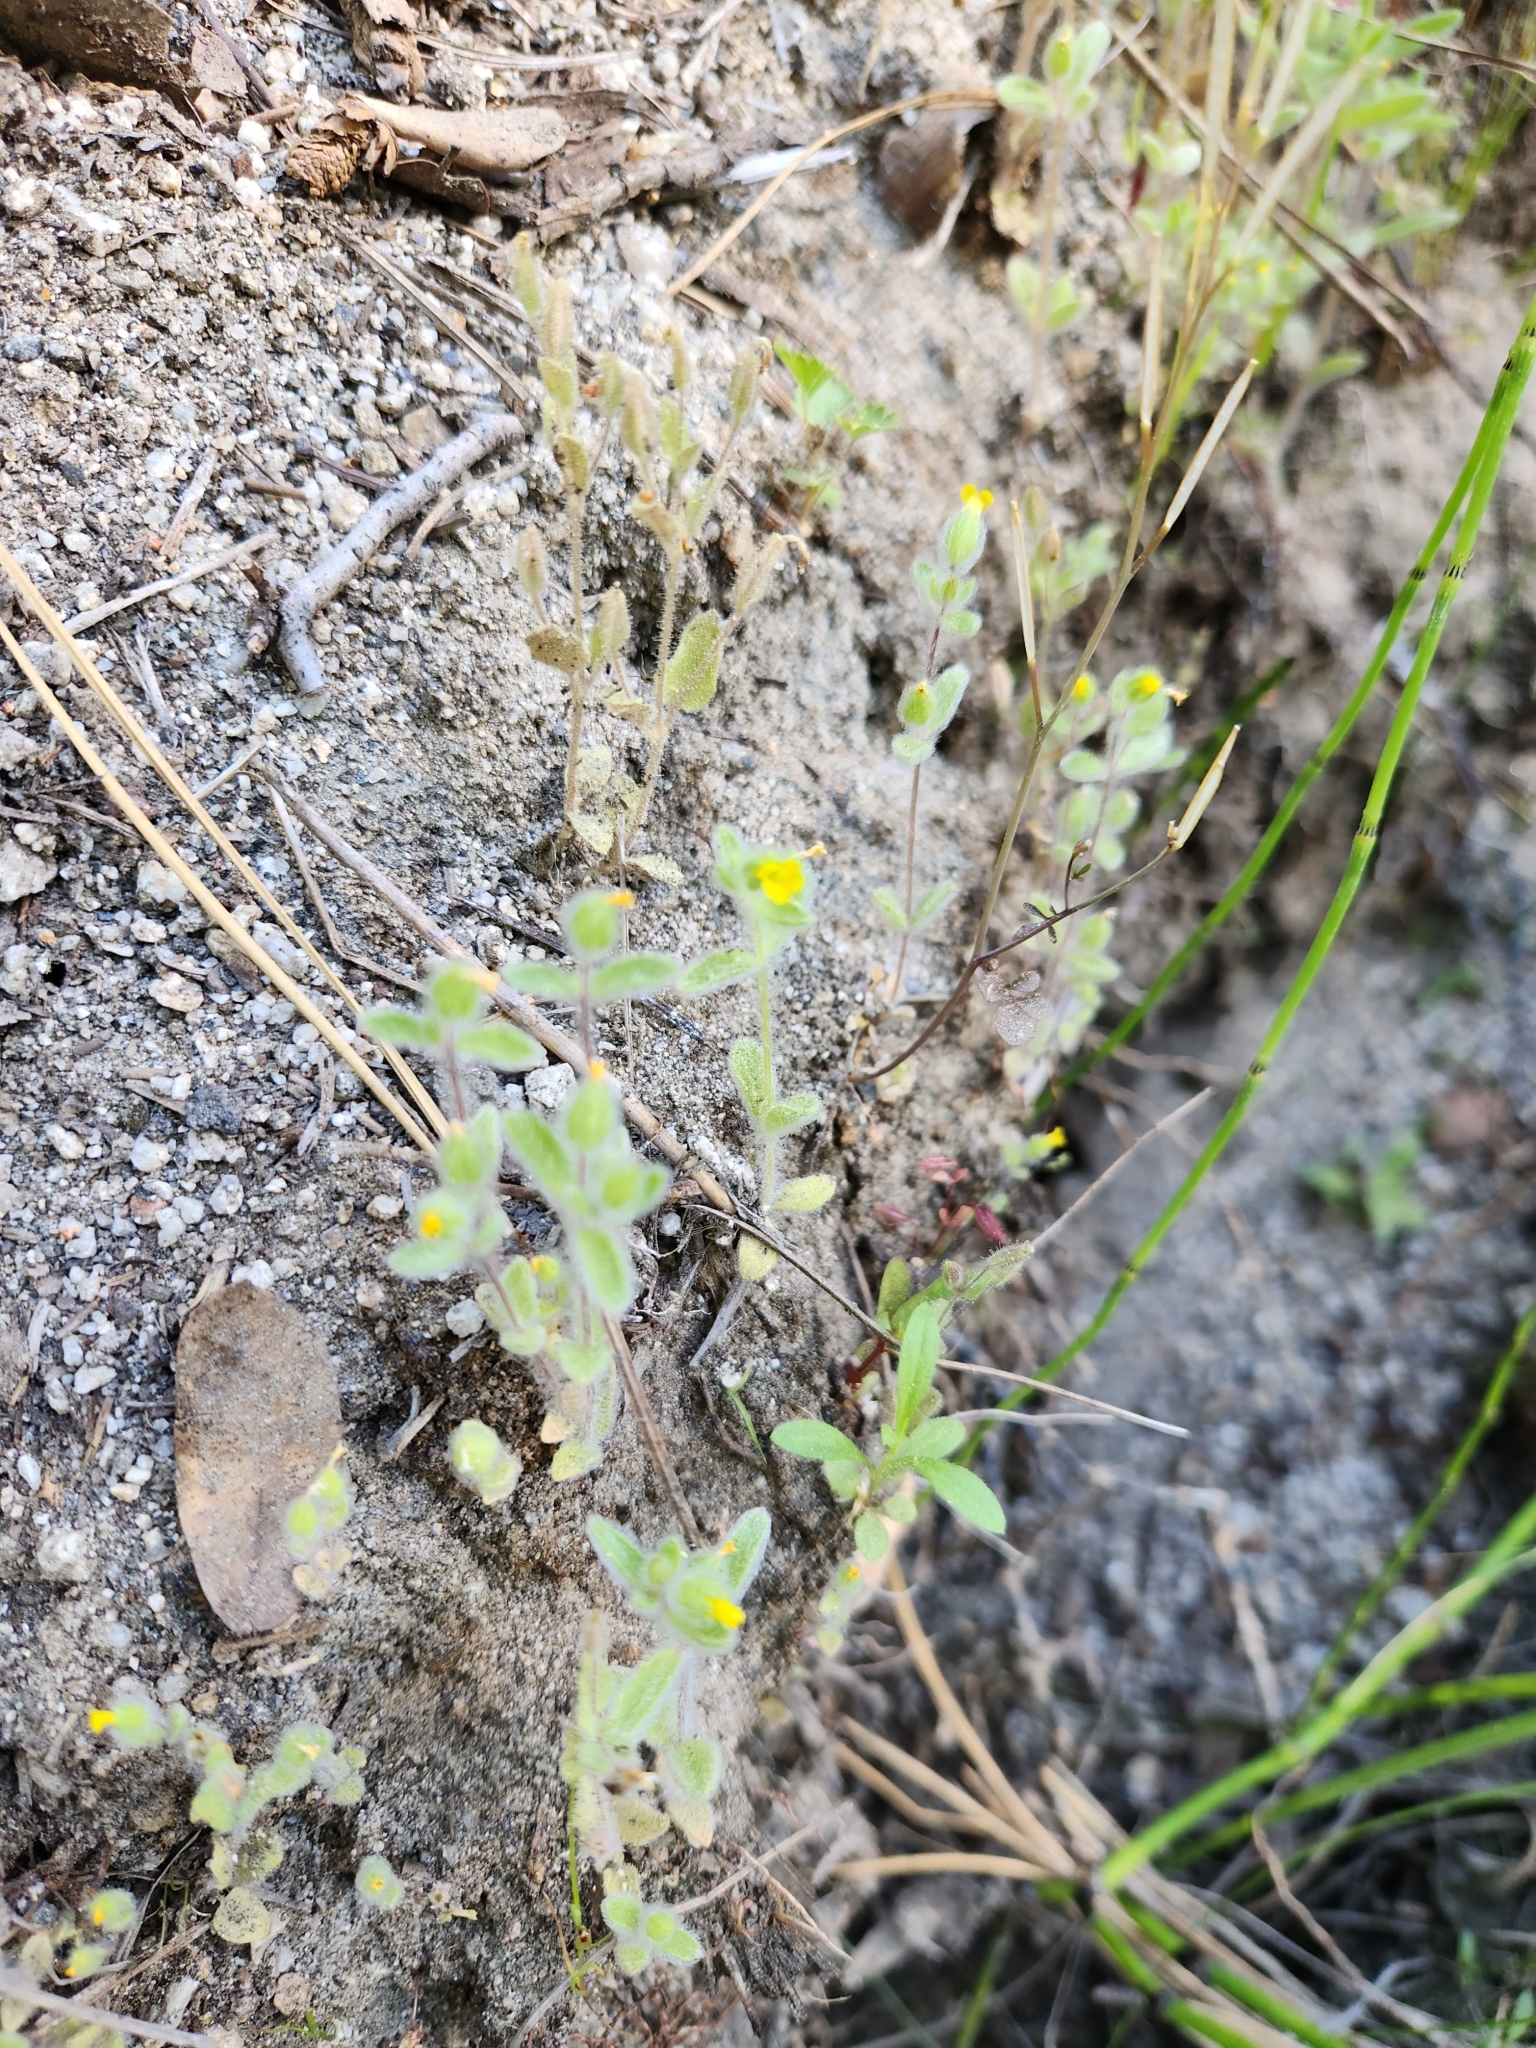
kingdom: Plantae
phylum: Tracheophyta
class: Magnoliopsida
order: Lamiales
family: Phrymaceae
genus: Mimetanthe
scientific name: Mimetanthe pilosa
